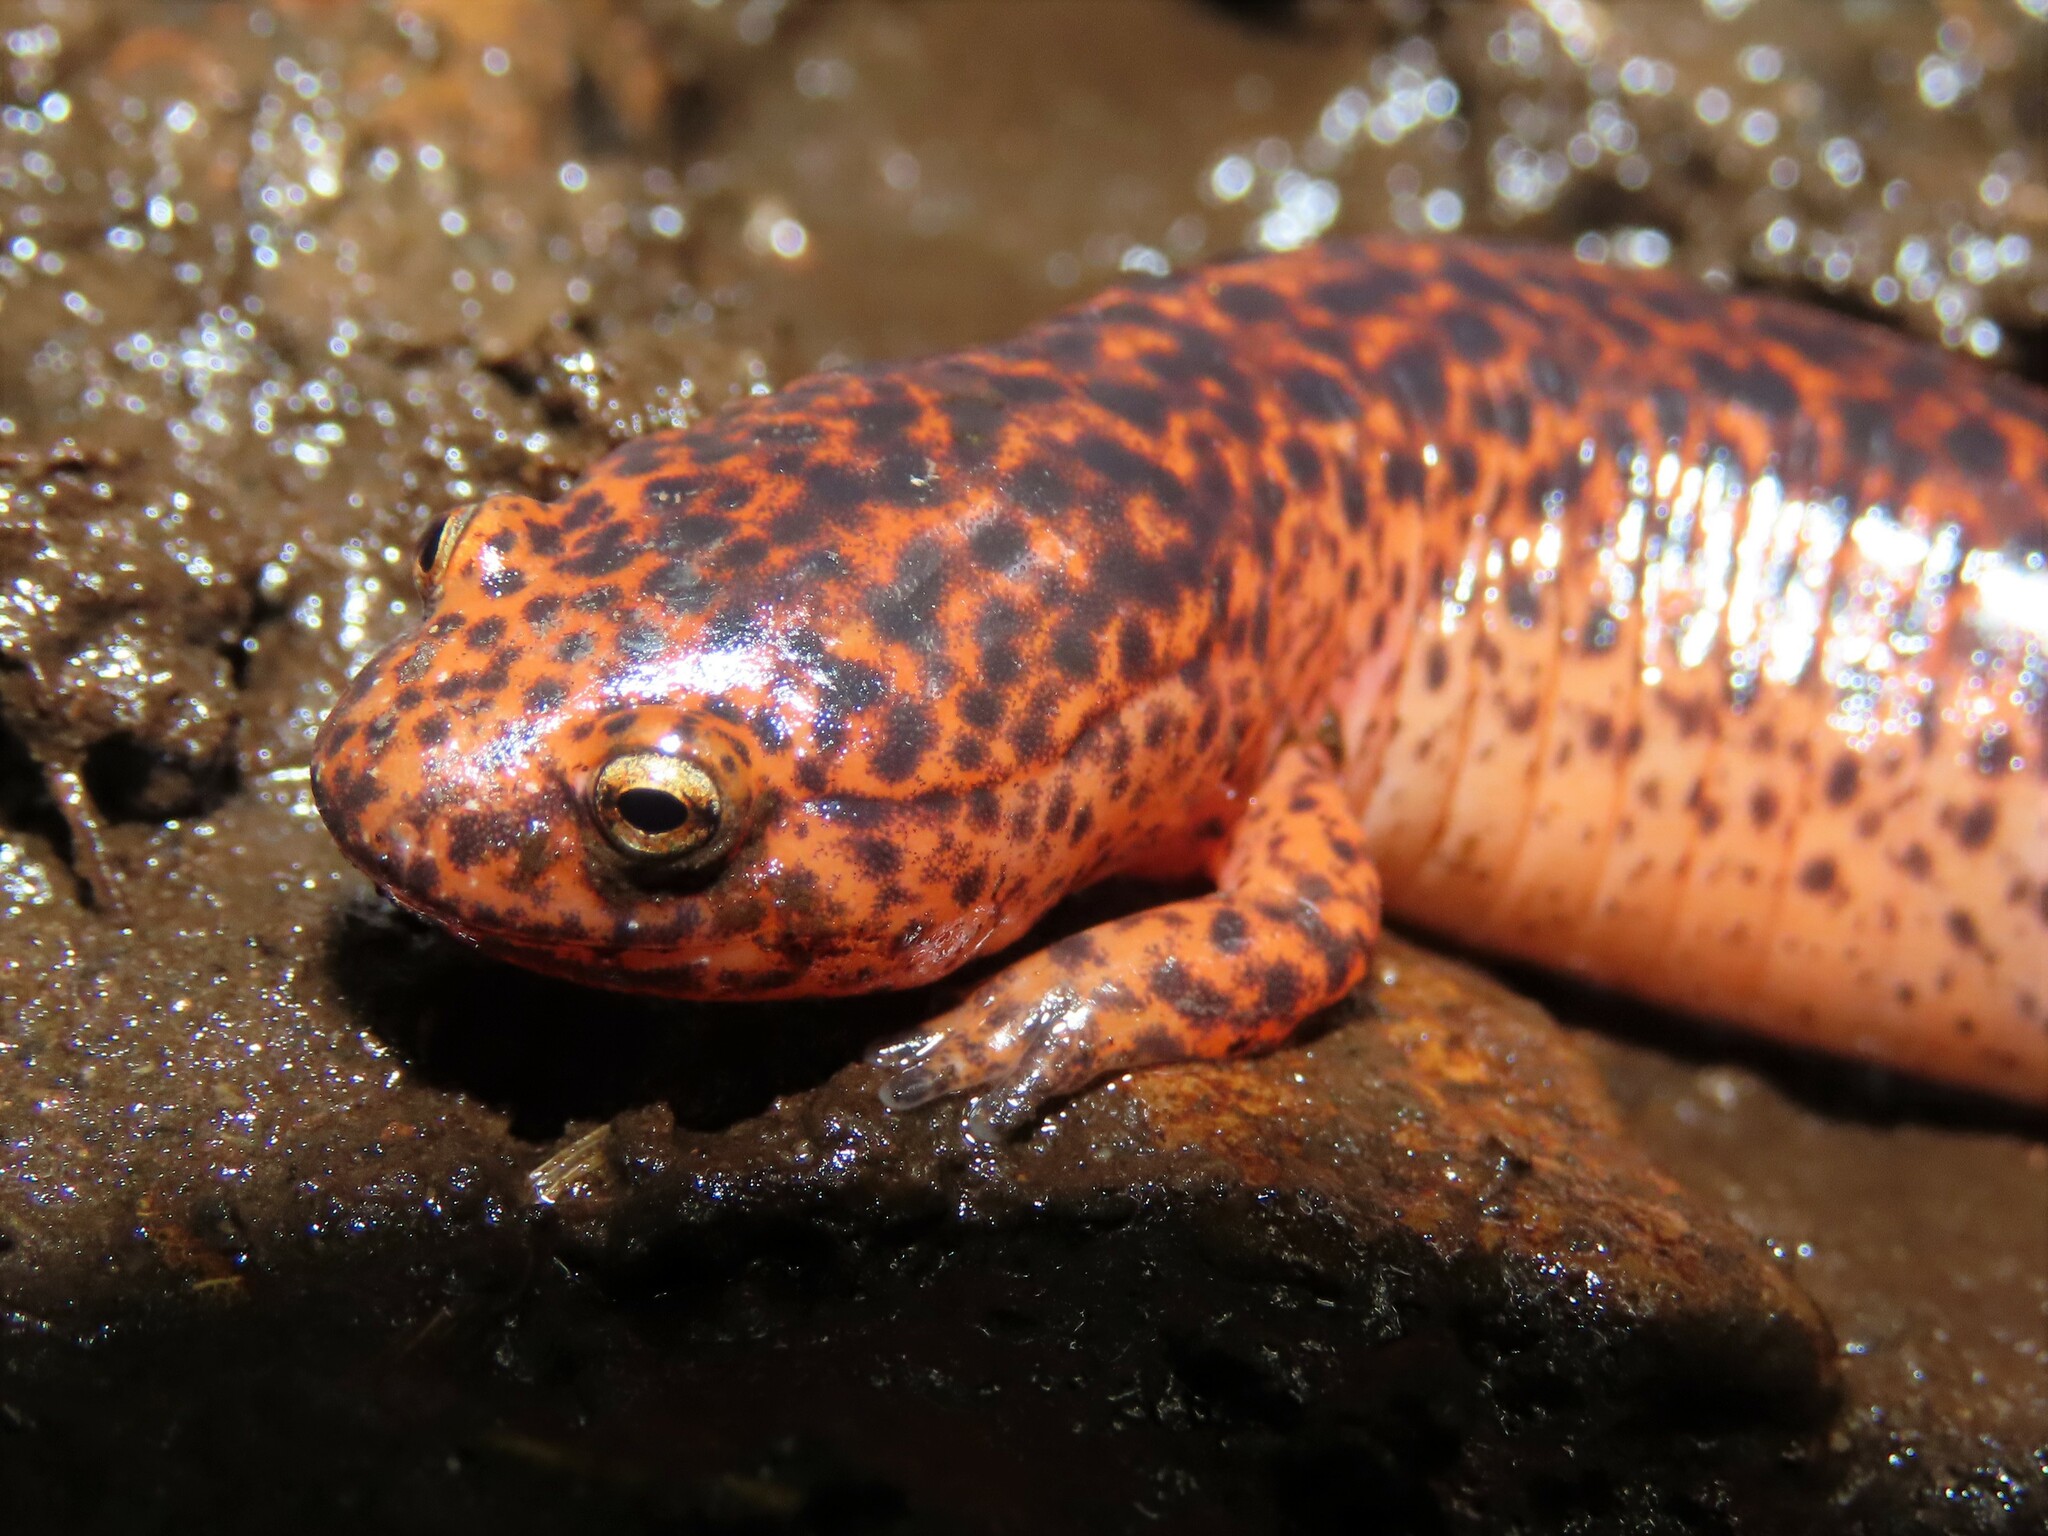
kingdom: Animalia
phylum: Chordata
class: Amphibia
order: Caudata
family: Plethodontidae
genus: Pseudotriton
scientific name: Pseudotriton ruber
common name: Red salamander
